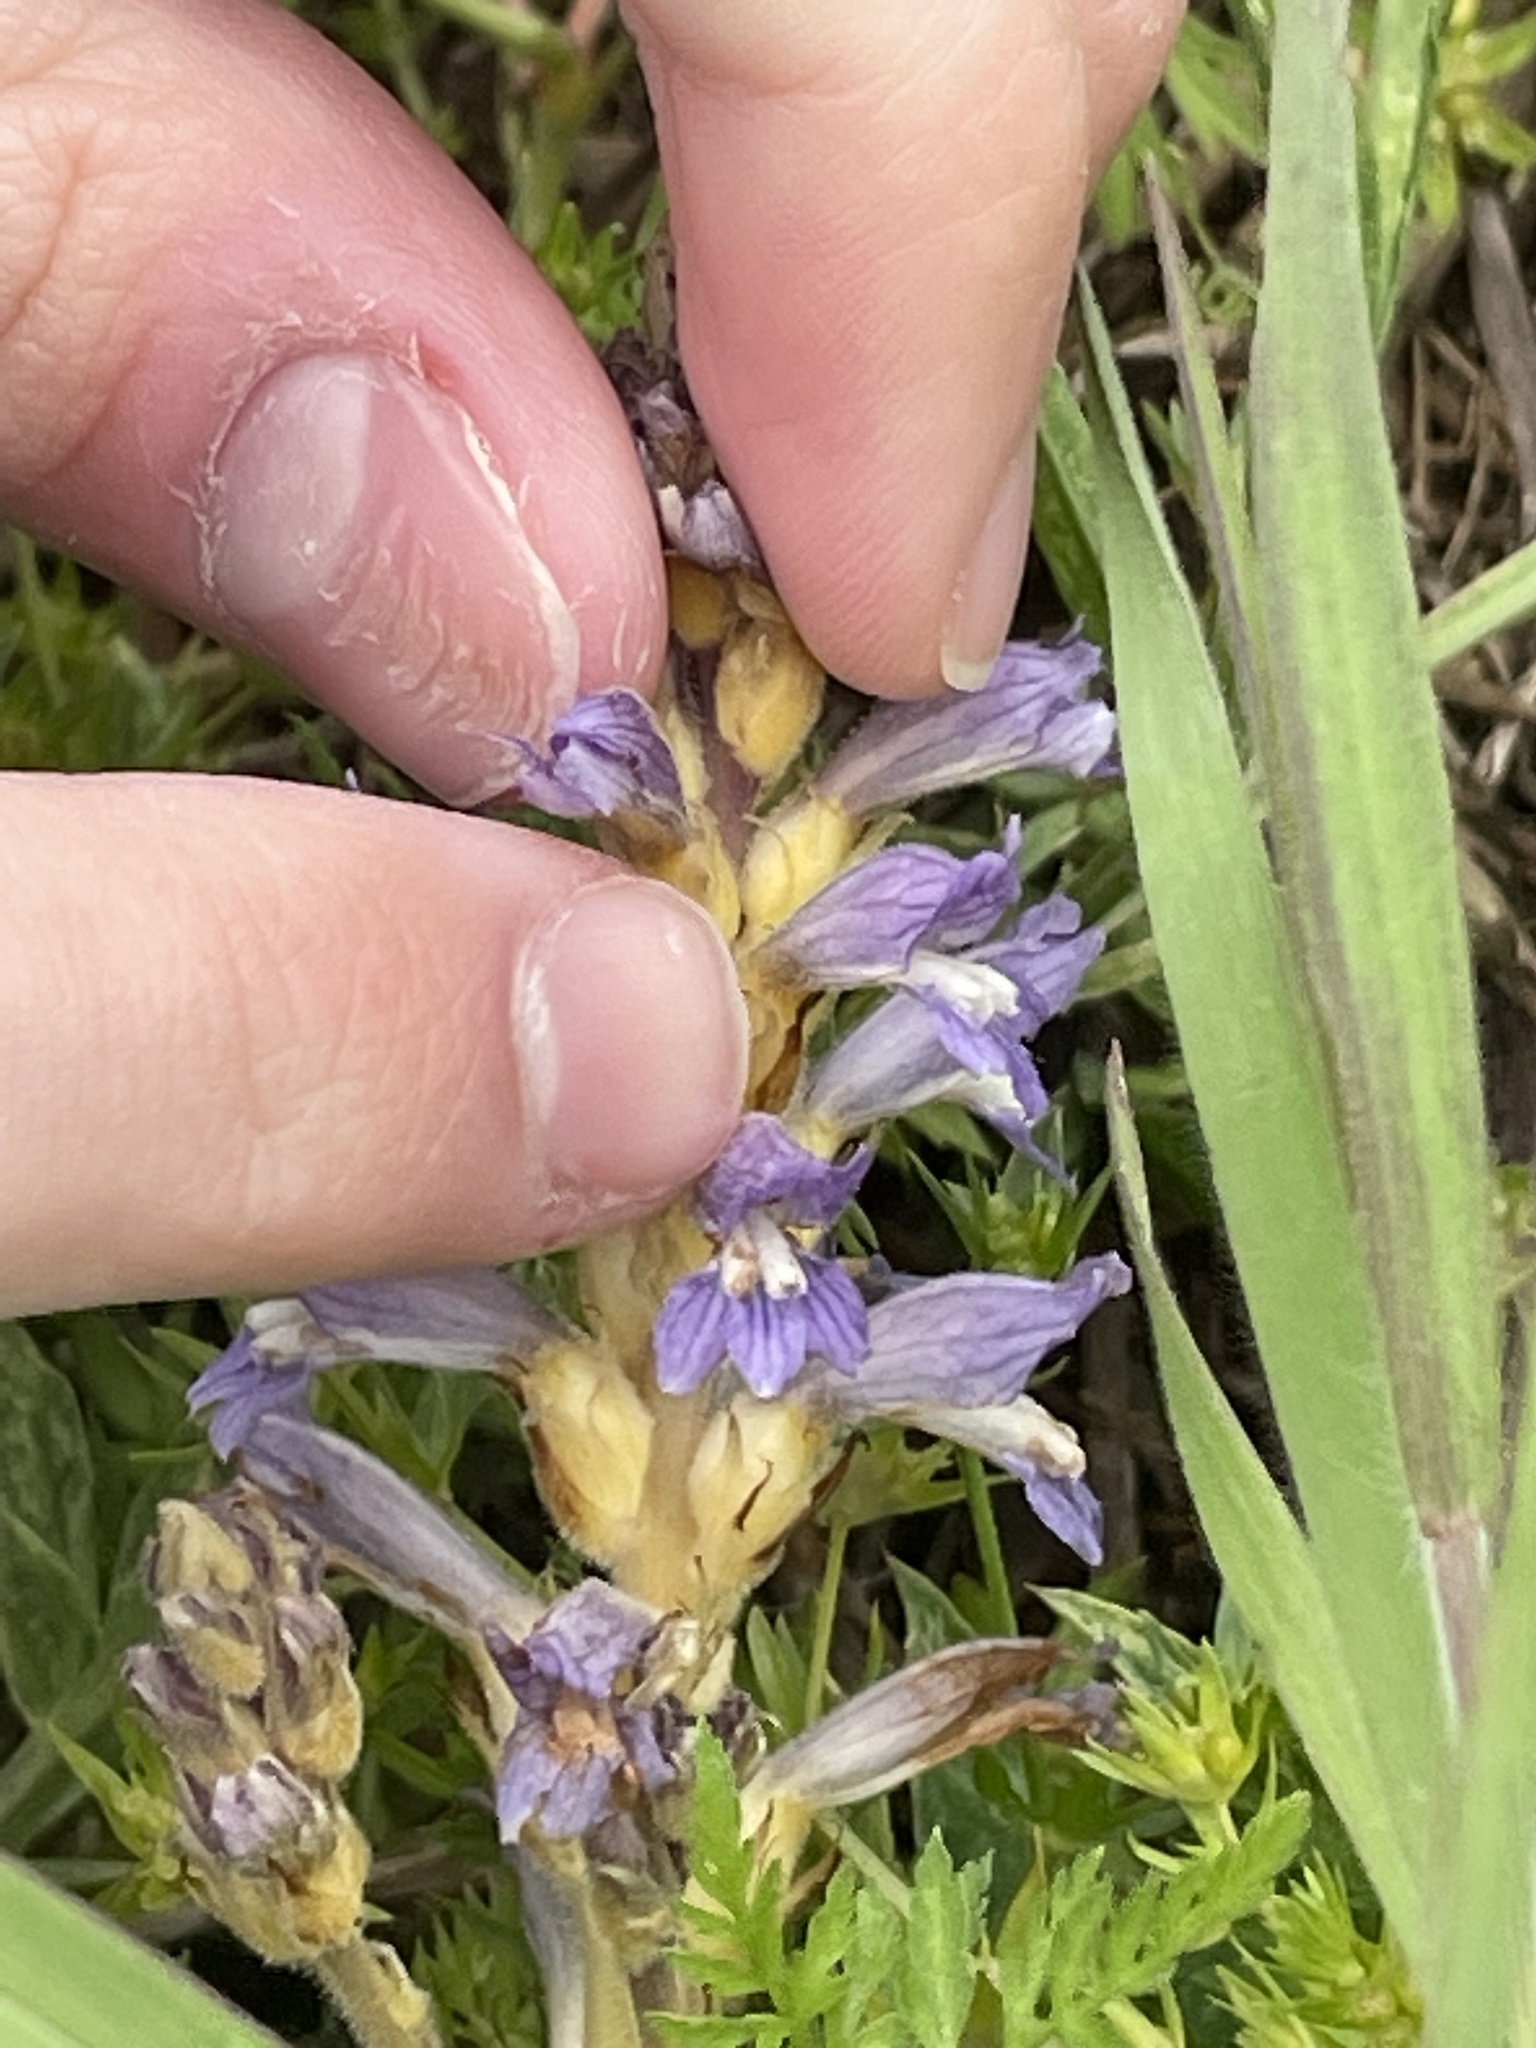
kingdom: Plantae
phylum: Tracheophyta
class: Magnoliopsida
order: Lamiales
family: Orobanchaceae
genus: Phelipanche
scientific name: Phelipanche mutelii
